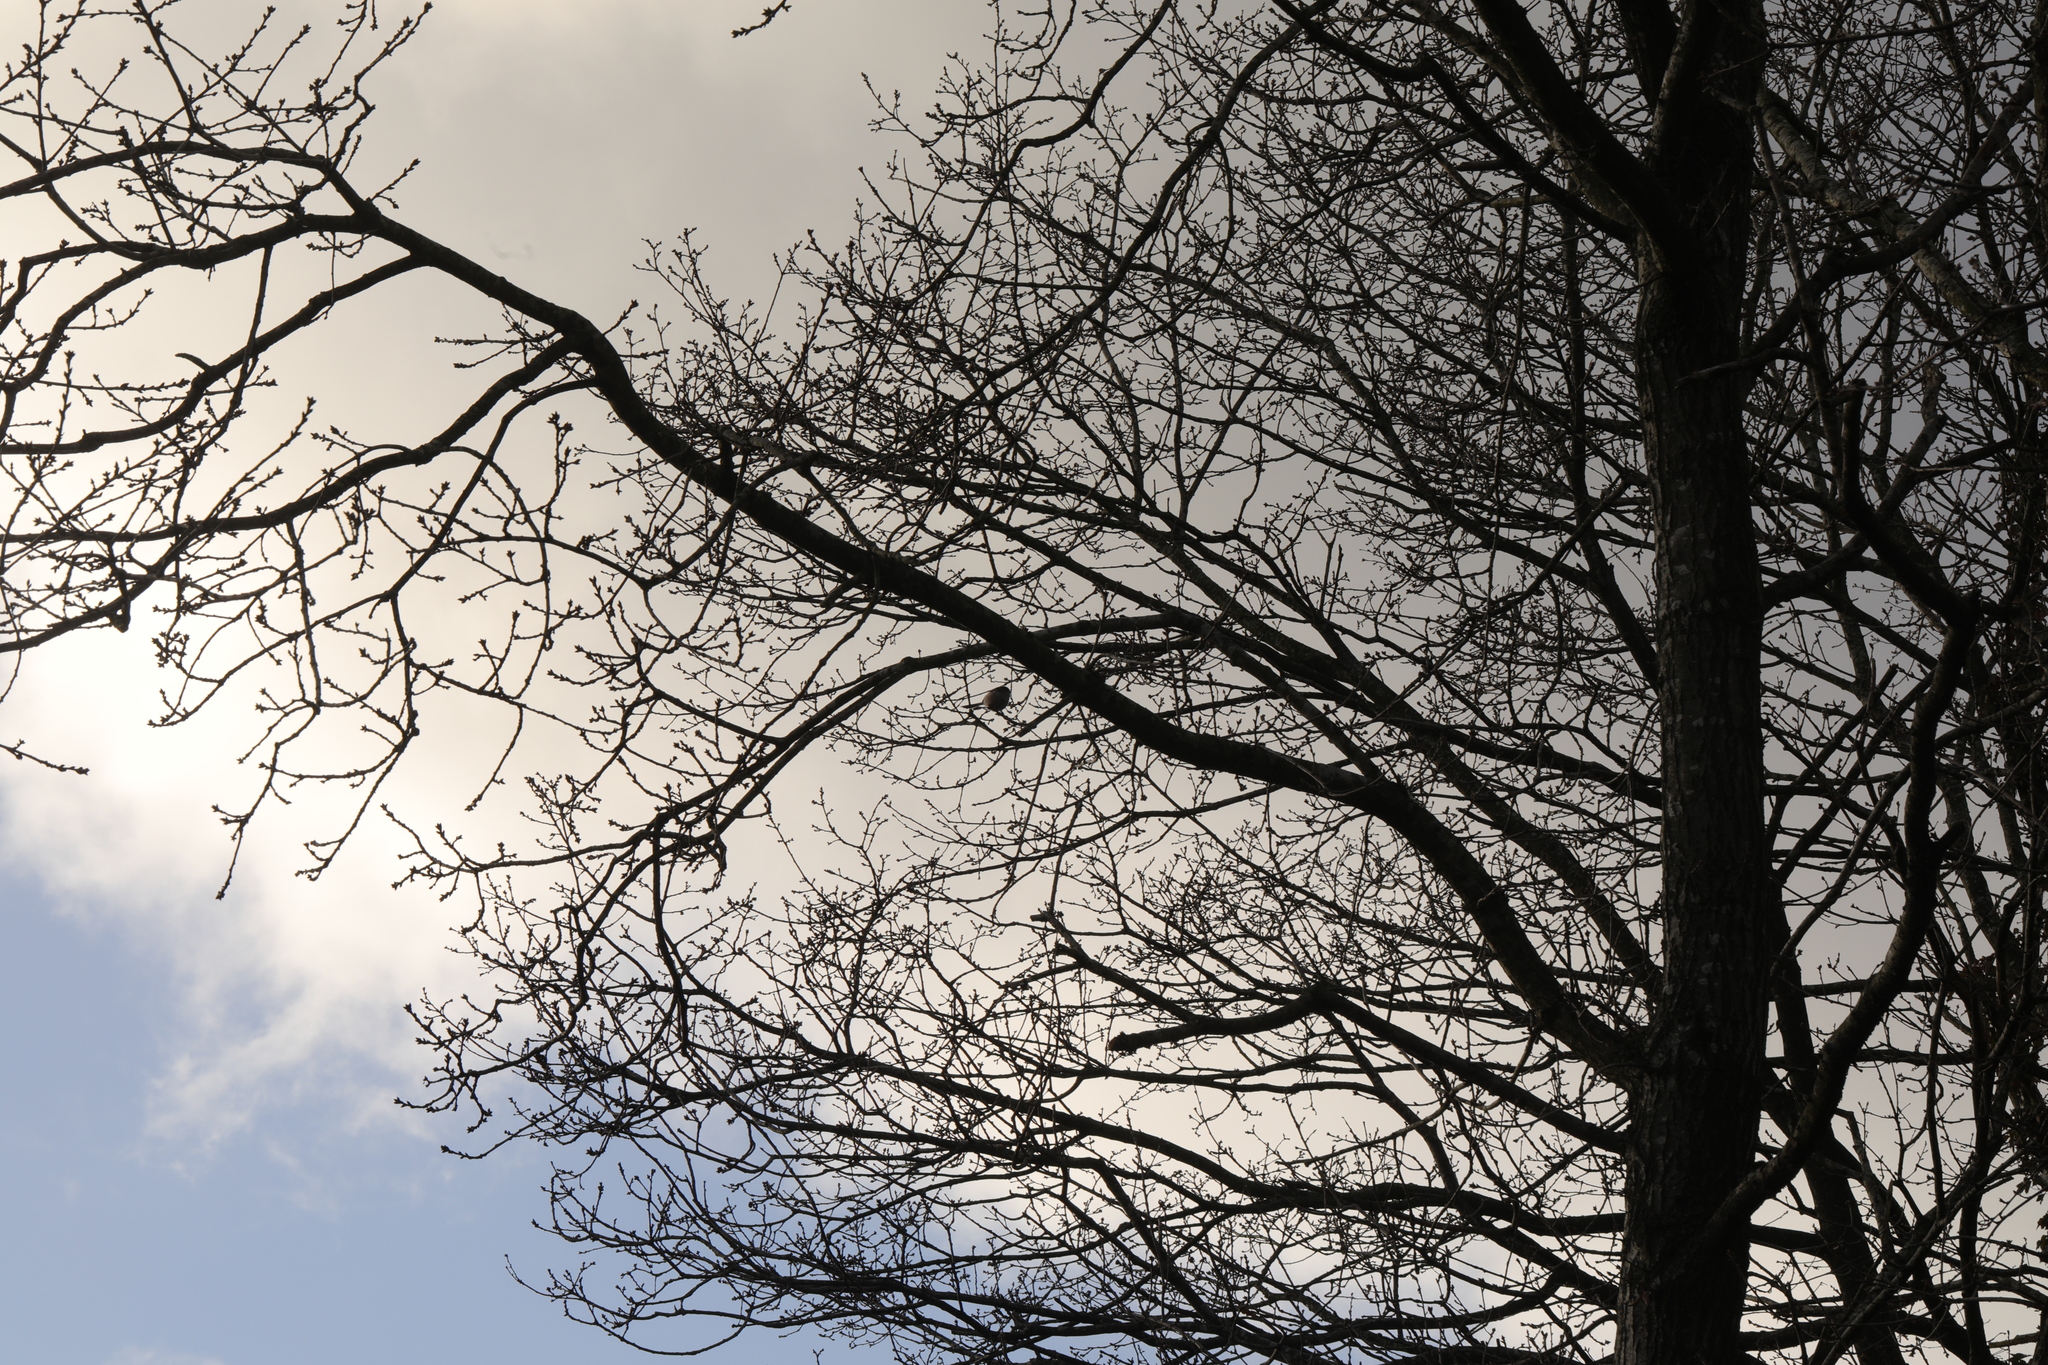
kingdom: Animalia
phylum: Chordata
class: Aves
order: Passeriformes
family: Aegithalidae
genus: Aegithalos
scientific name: Aegithalos caudatus
